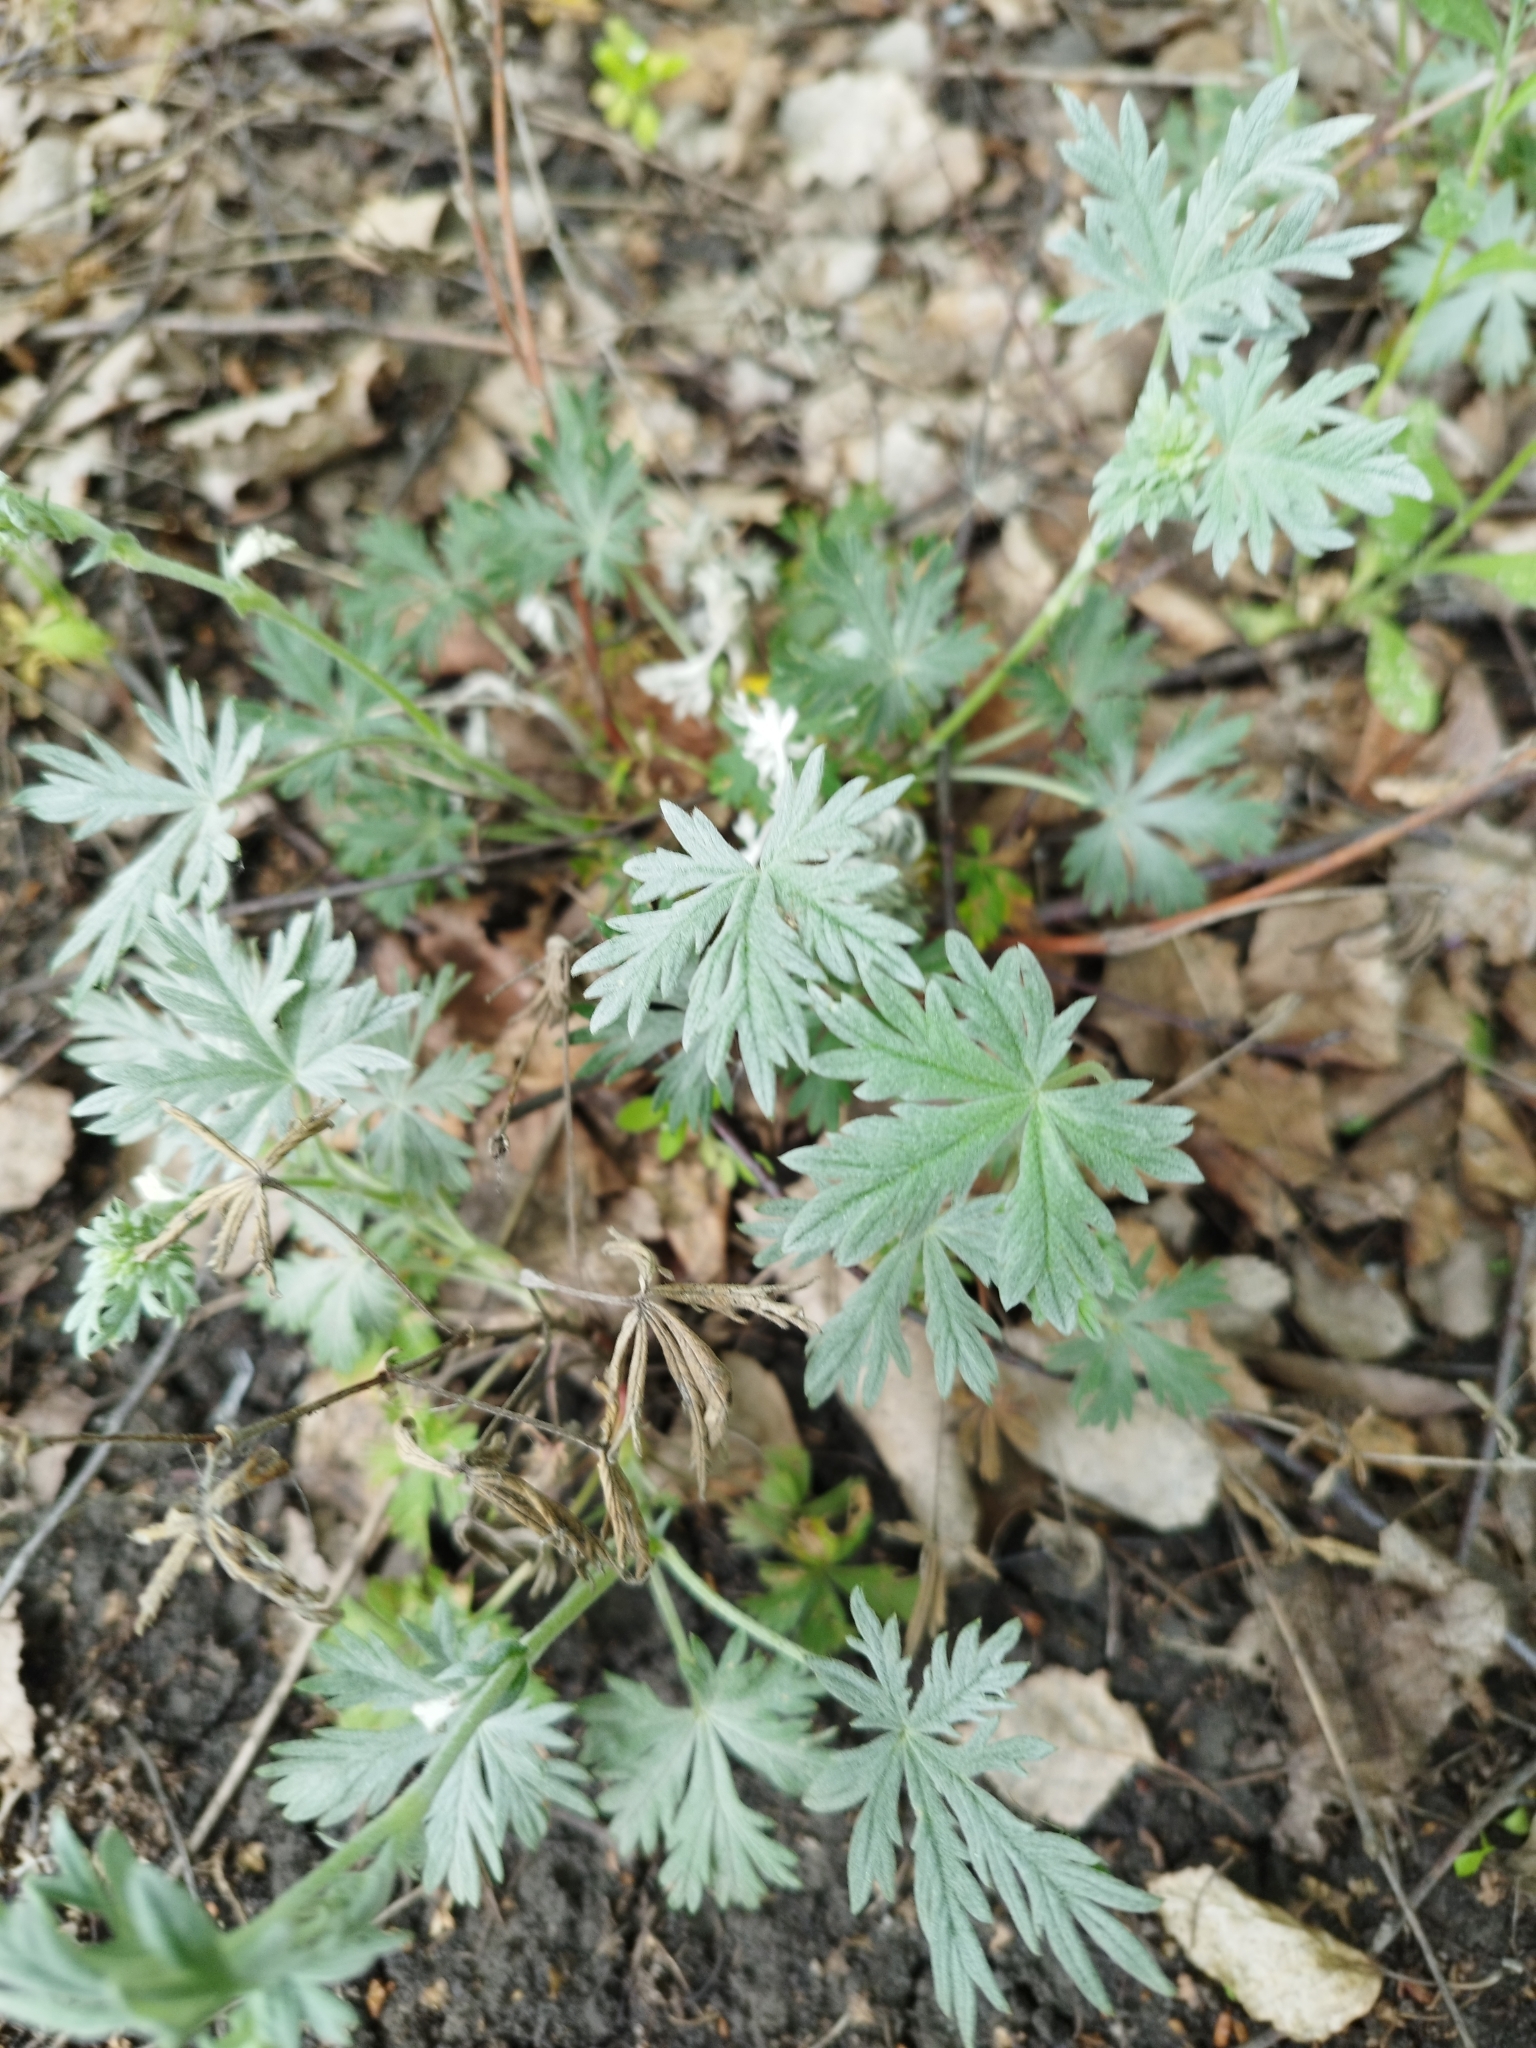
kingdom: Plantae
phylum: Tracheophyta
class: Magnoliopsida
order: Rosales
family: Rosaceae
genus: Potentilla
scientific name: Potentilla argentea
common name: Hoary cinquefoil
